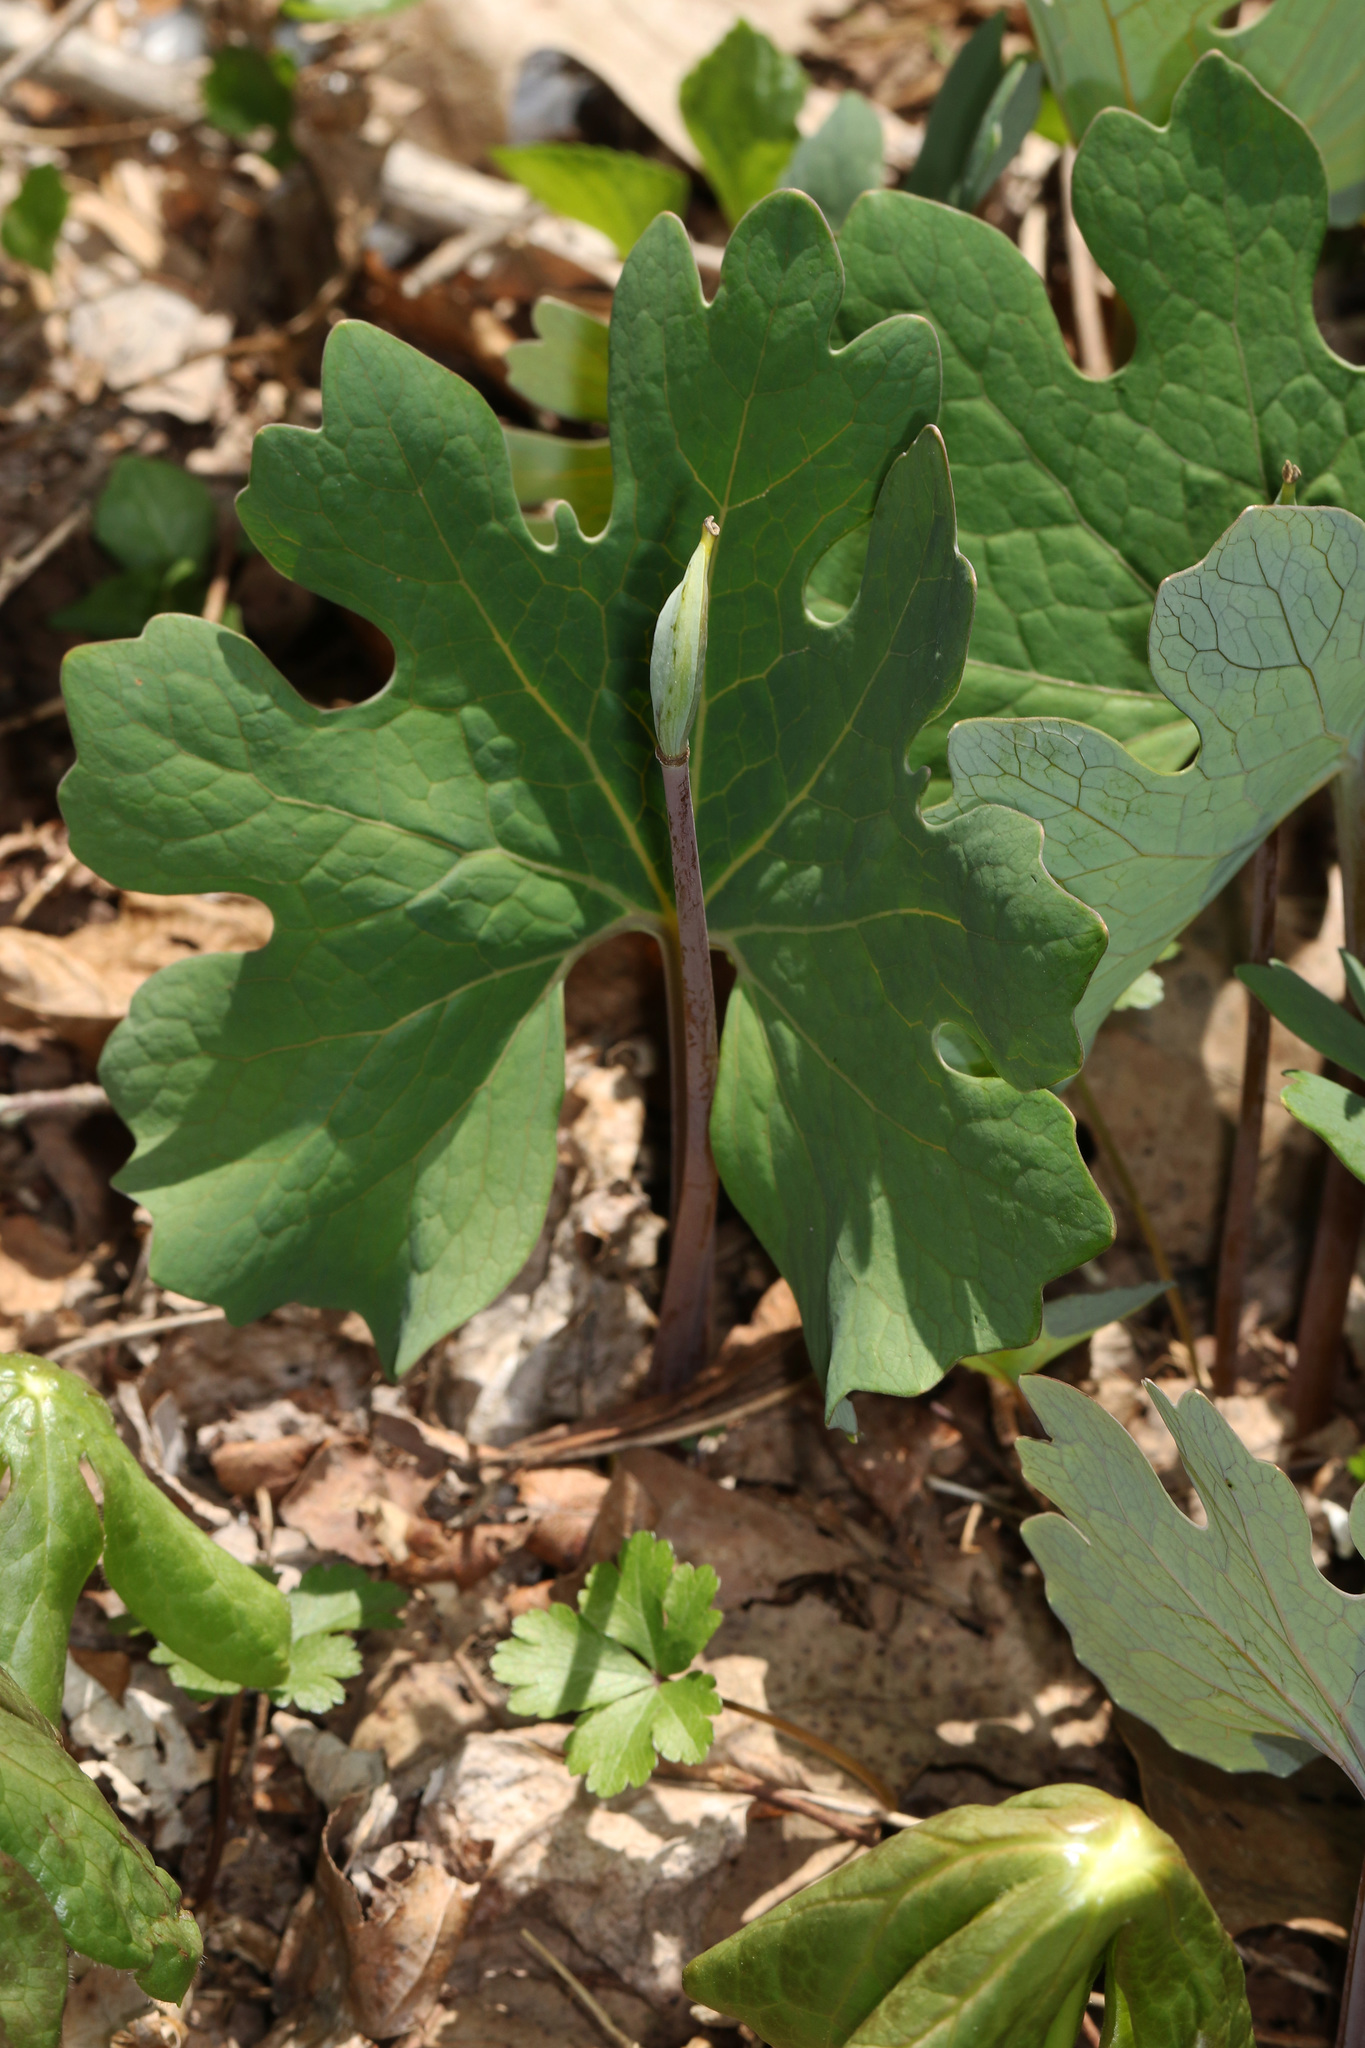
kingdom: Plantae
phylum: Tracheophyta
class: Magnoliopsida
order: Ranunculales
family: Papaveraceae
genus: Sanguinaria
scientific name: Sanguinaria canadensis
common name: Bloodroot
